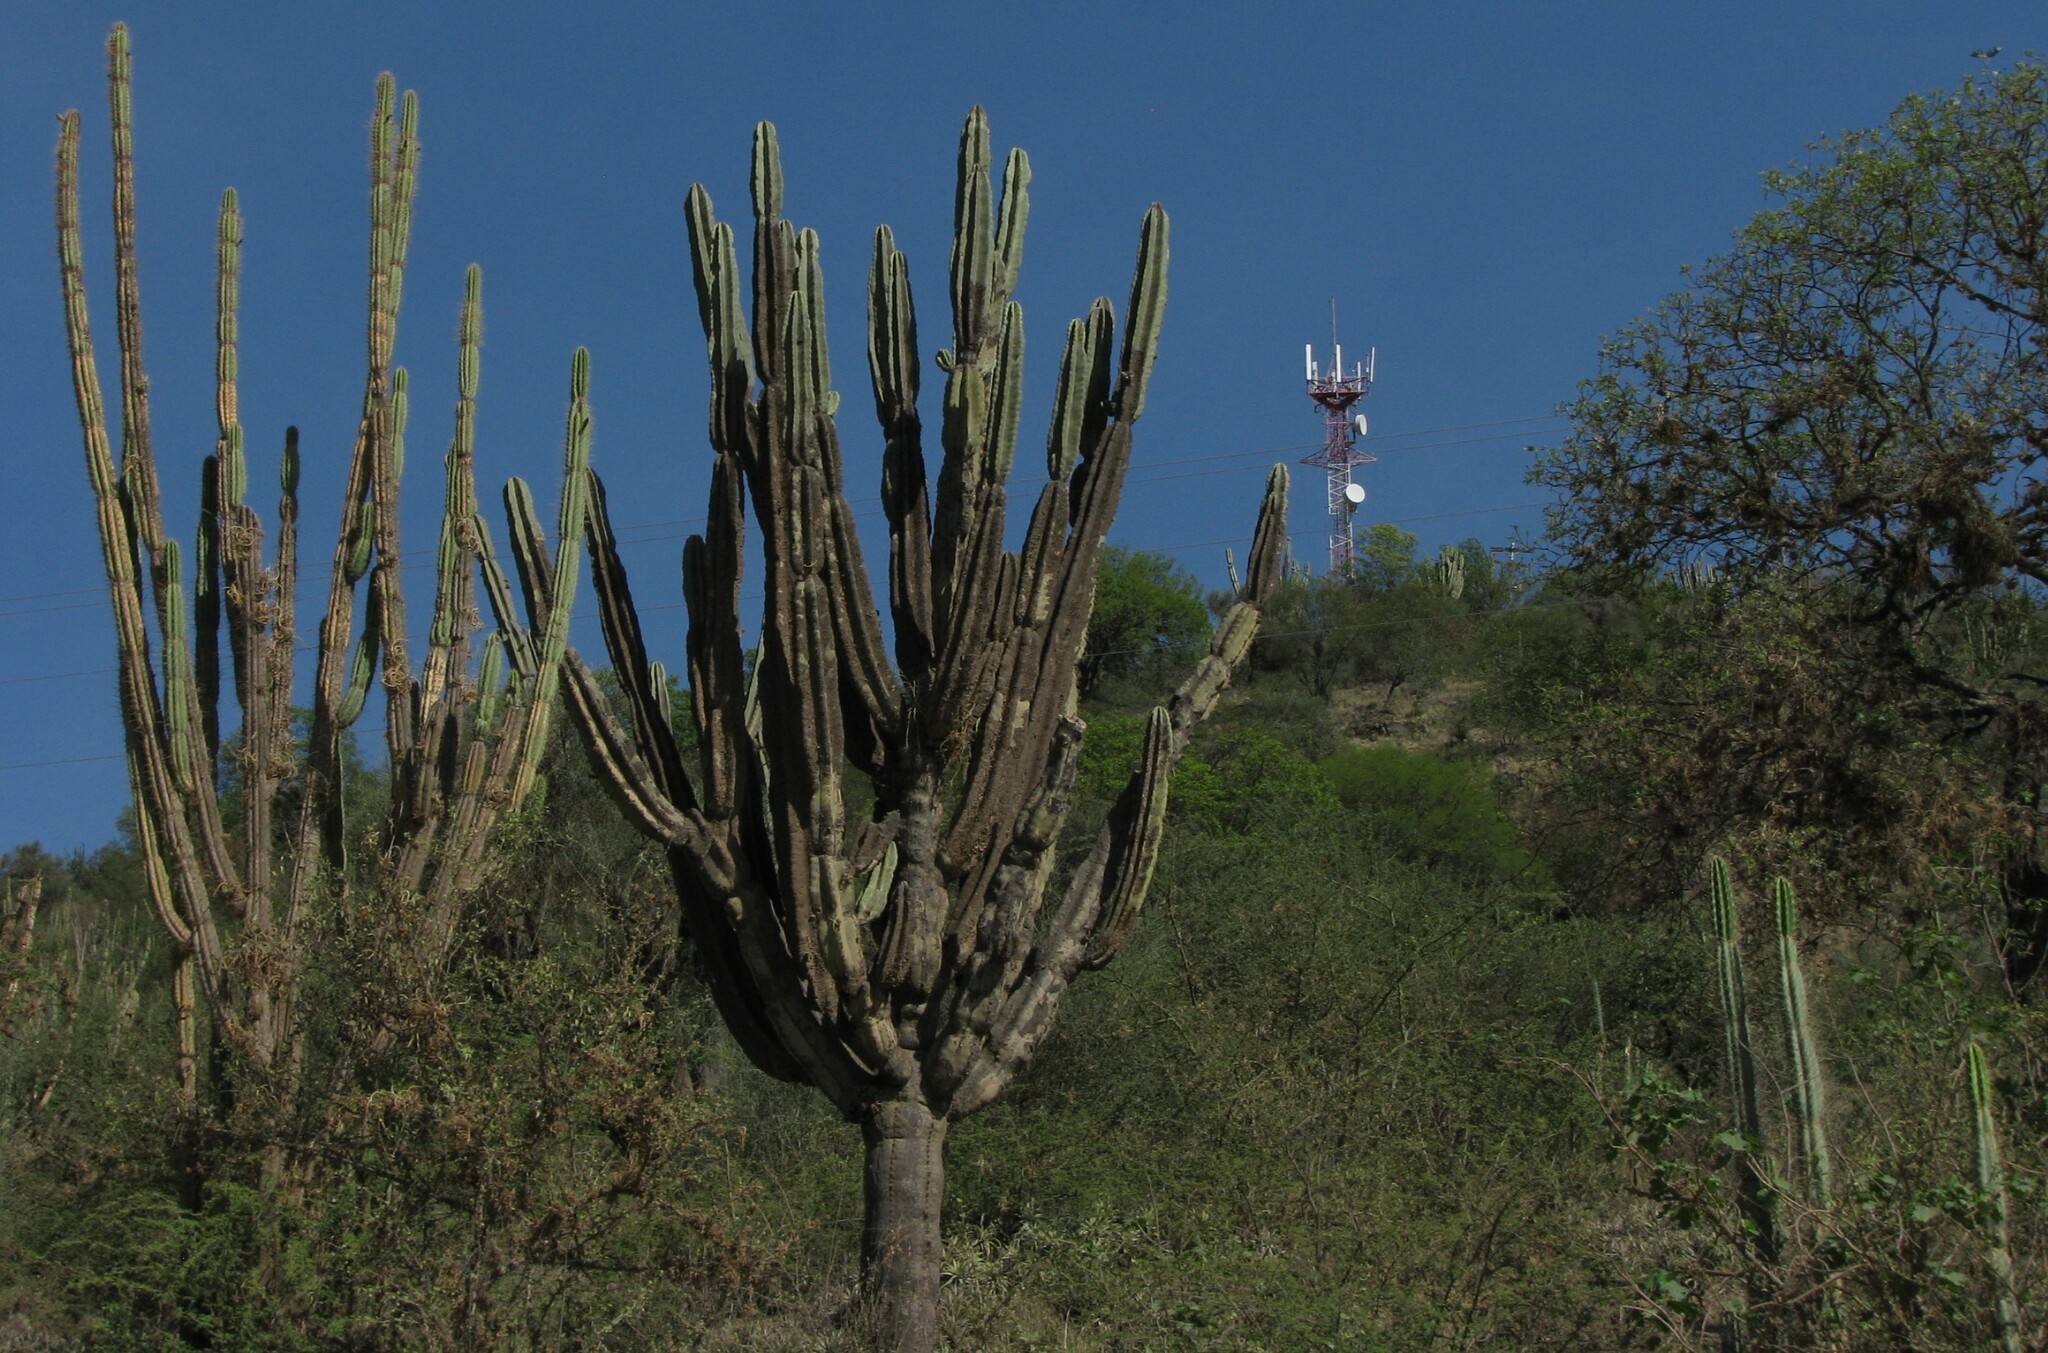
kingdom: Plantae
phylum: Tracheophyta
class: Magnoliopsida
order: Caryophyllales
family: Cactaceae
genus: Neoraimondia
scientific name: Neoraimondia herzogiana
